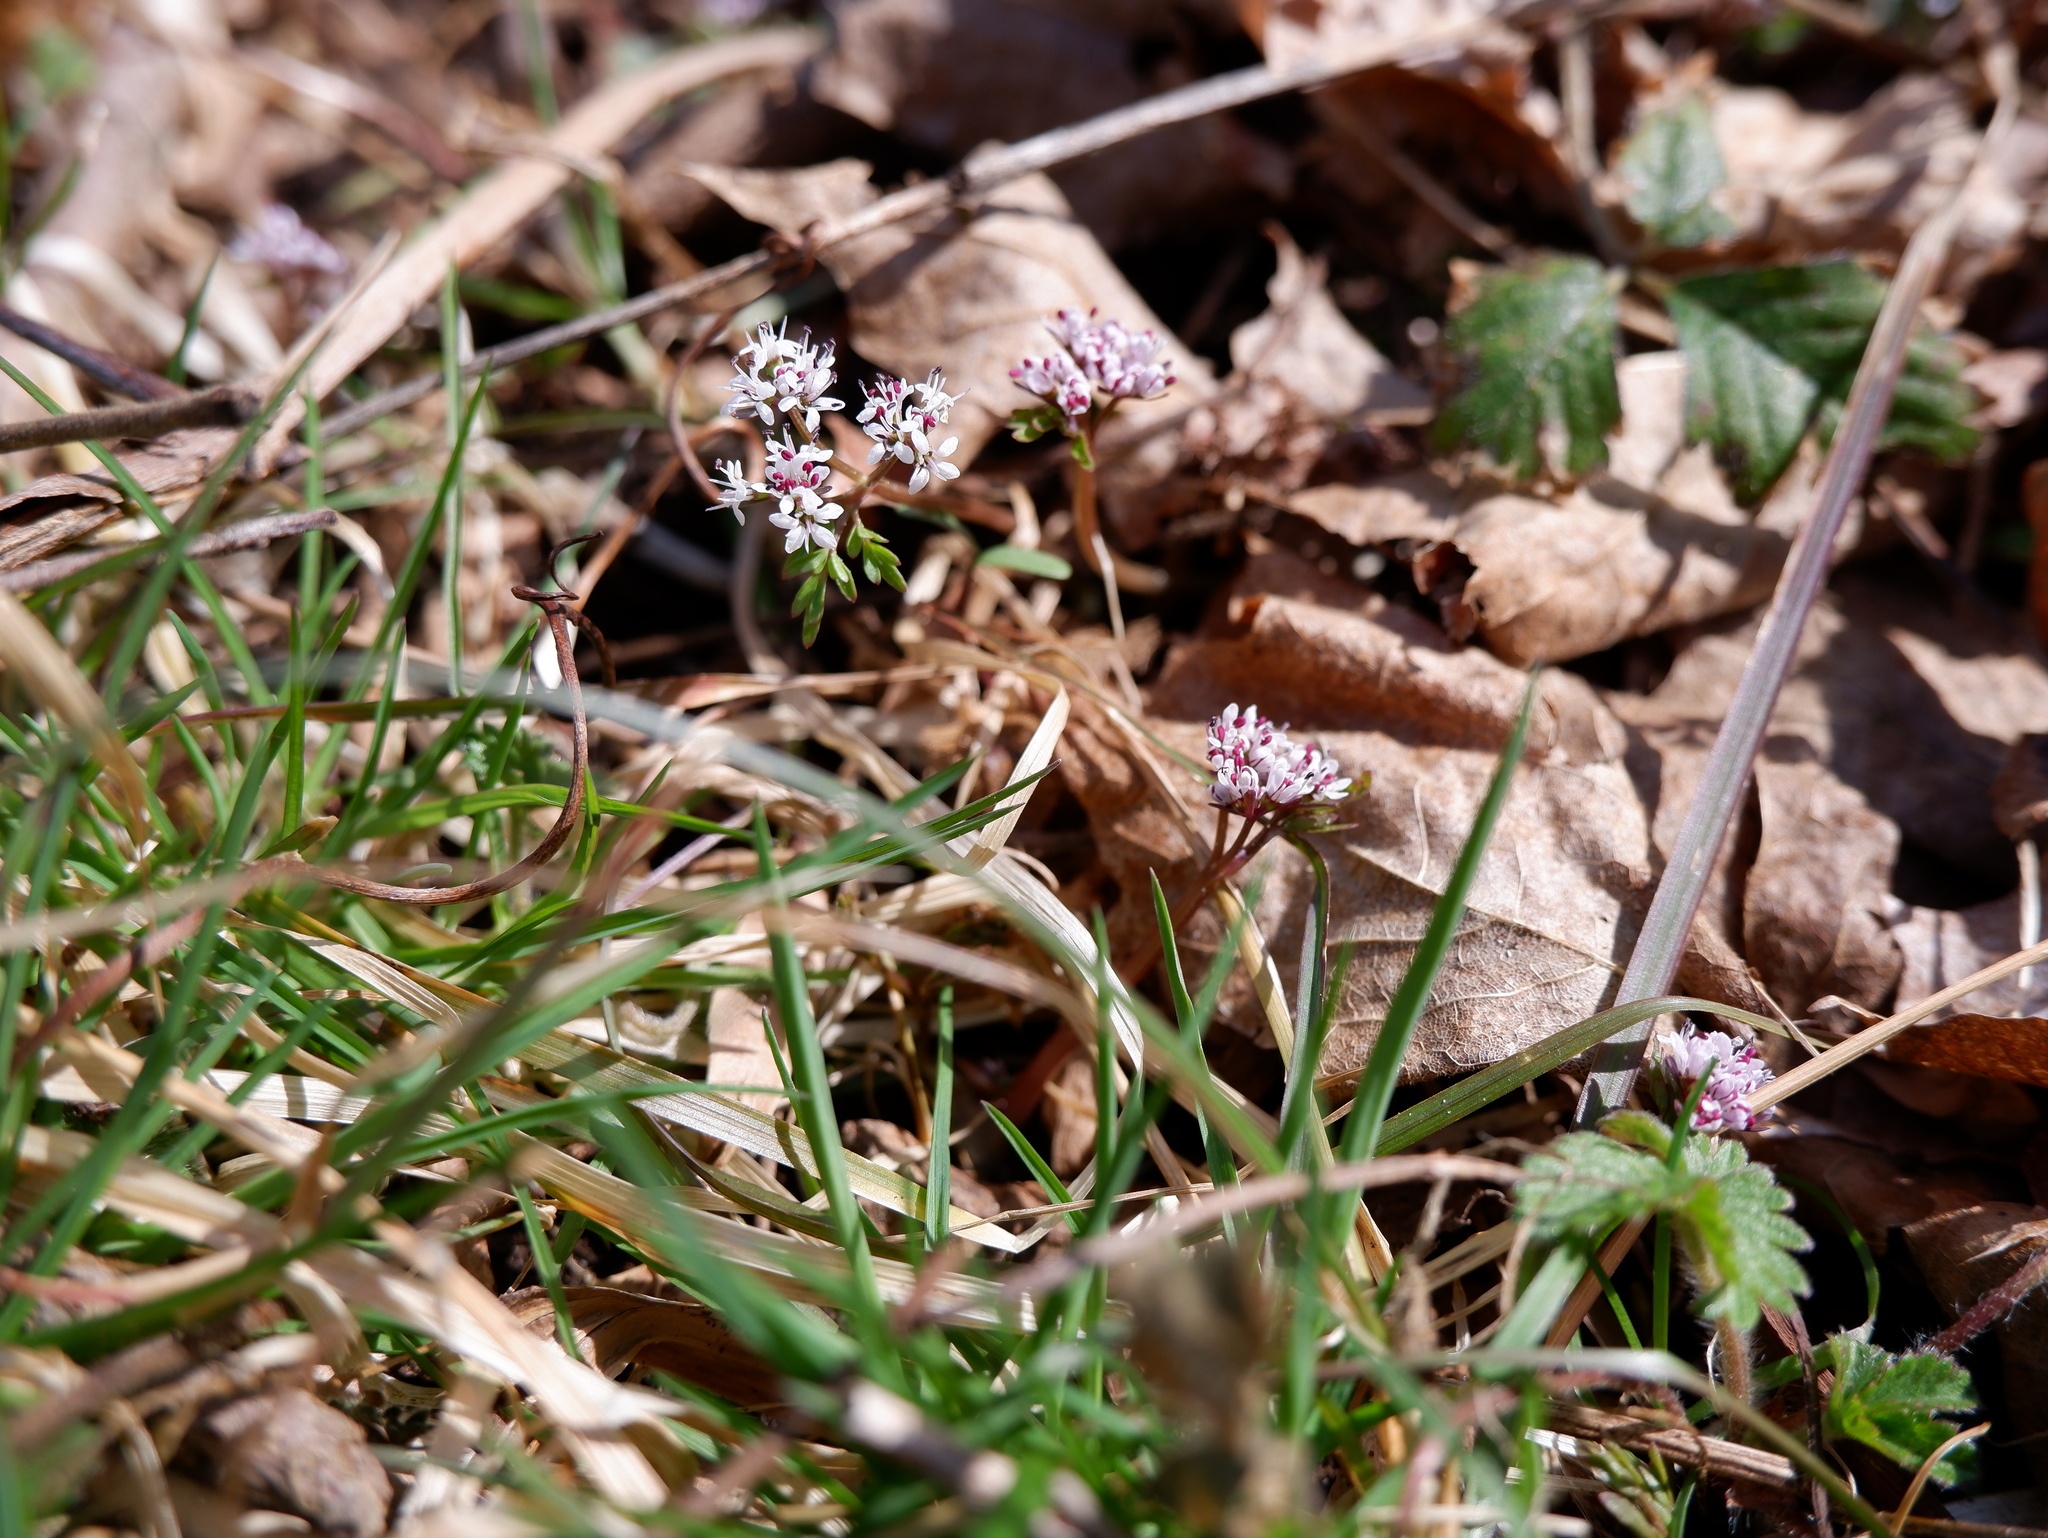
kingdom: Plantae
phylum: Tracheophyta
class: Magnoliopsida
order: Apiales
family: Apiaceae
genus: Erigenia
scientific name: Erigenia bulbosa
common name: Pepper-and-salt
